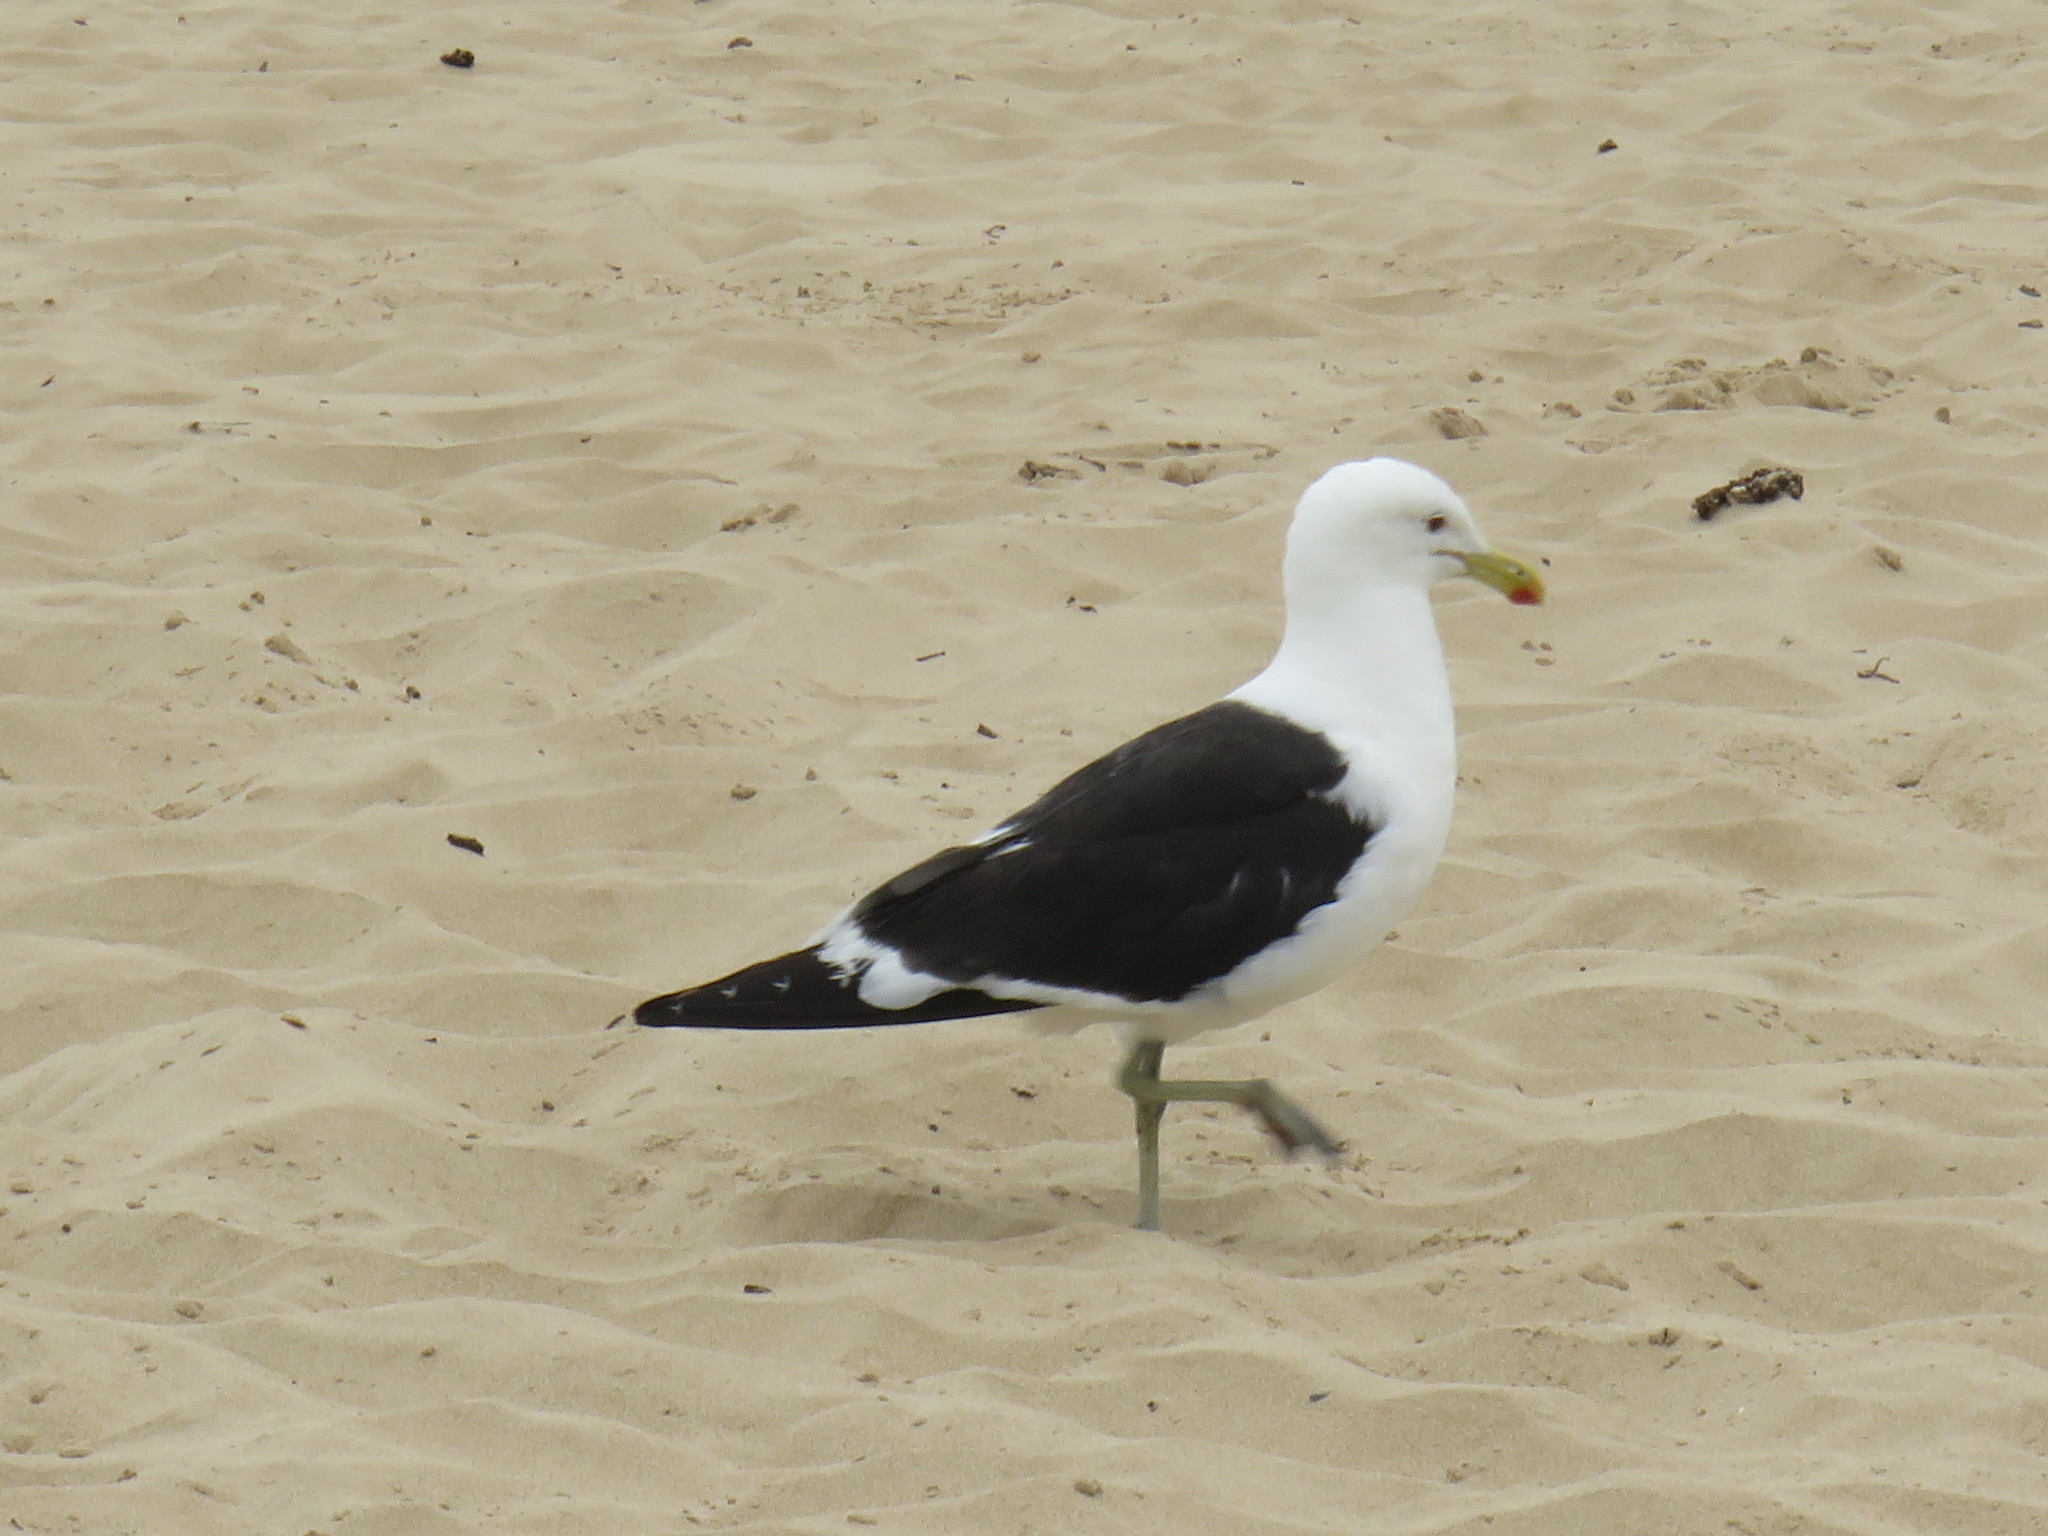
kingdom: Animalia
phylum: Chordata
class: Aves
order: Charadriiformes
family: Laridae
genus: Larus
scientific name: Larus dominicanus
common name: Kelp gull
